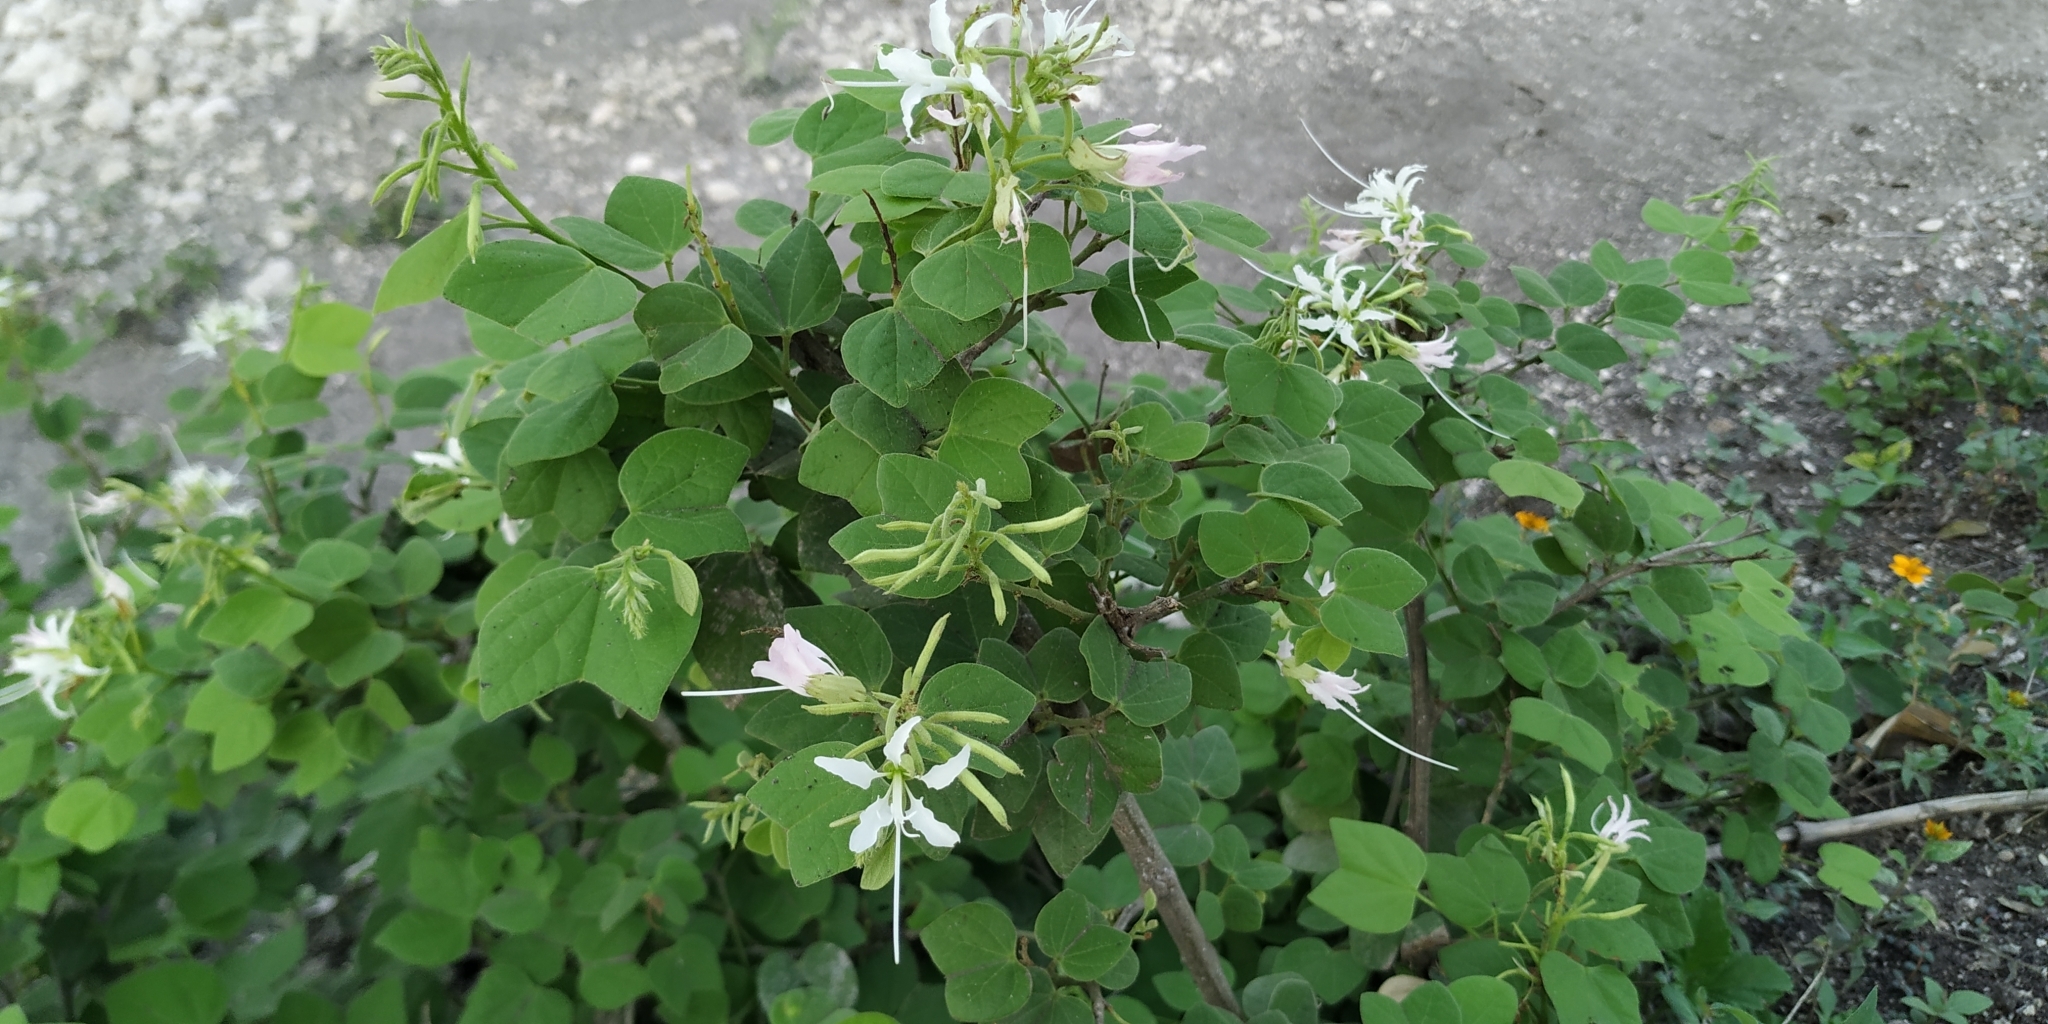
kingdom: Plantae
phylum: Tracheophyta
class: Magnoliopsida
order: Fabales
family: Fabaceae
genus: Bauhinia
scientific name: Bauhinia divaricata
